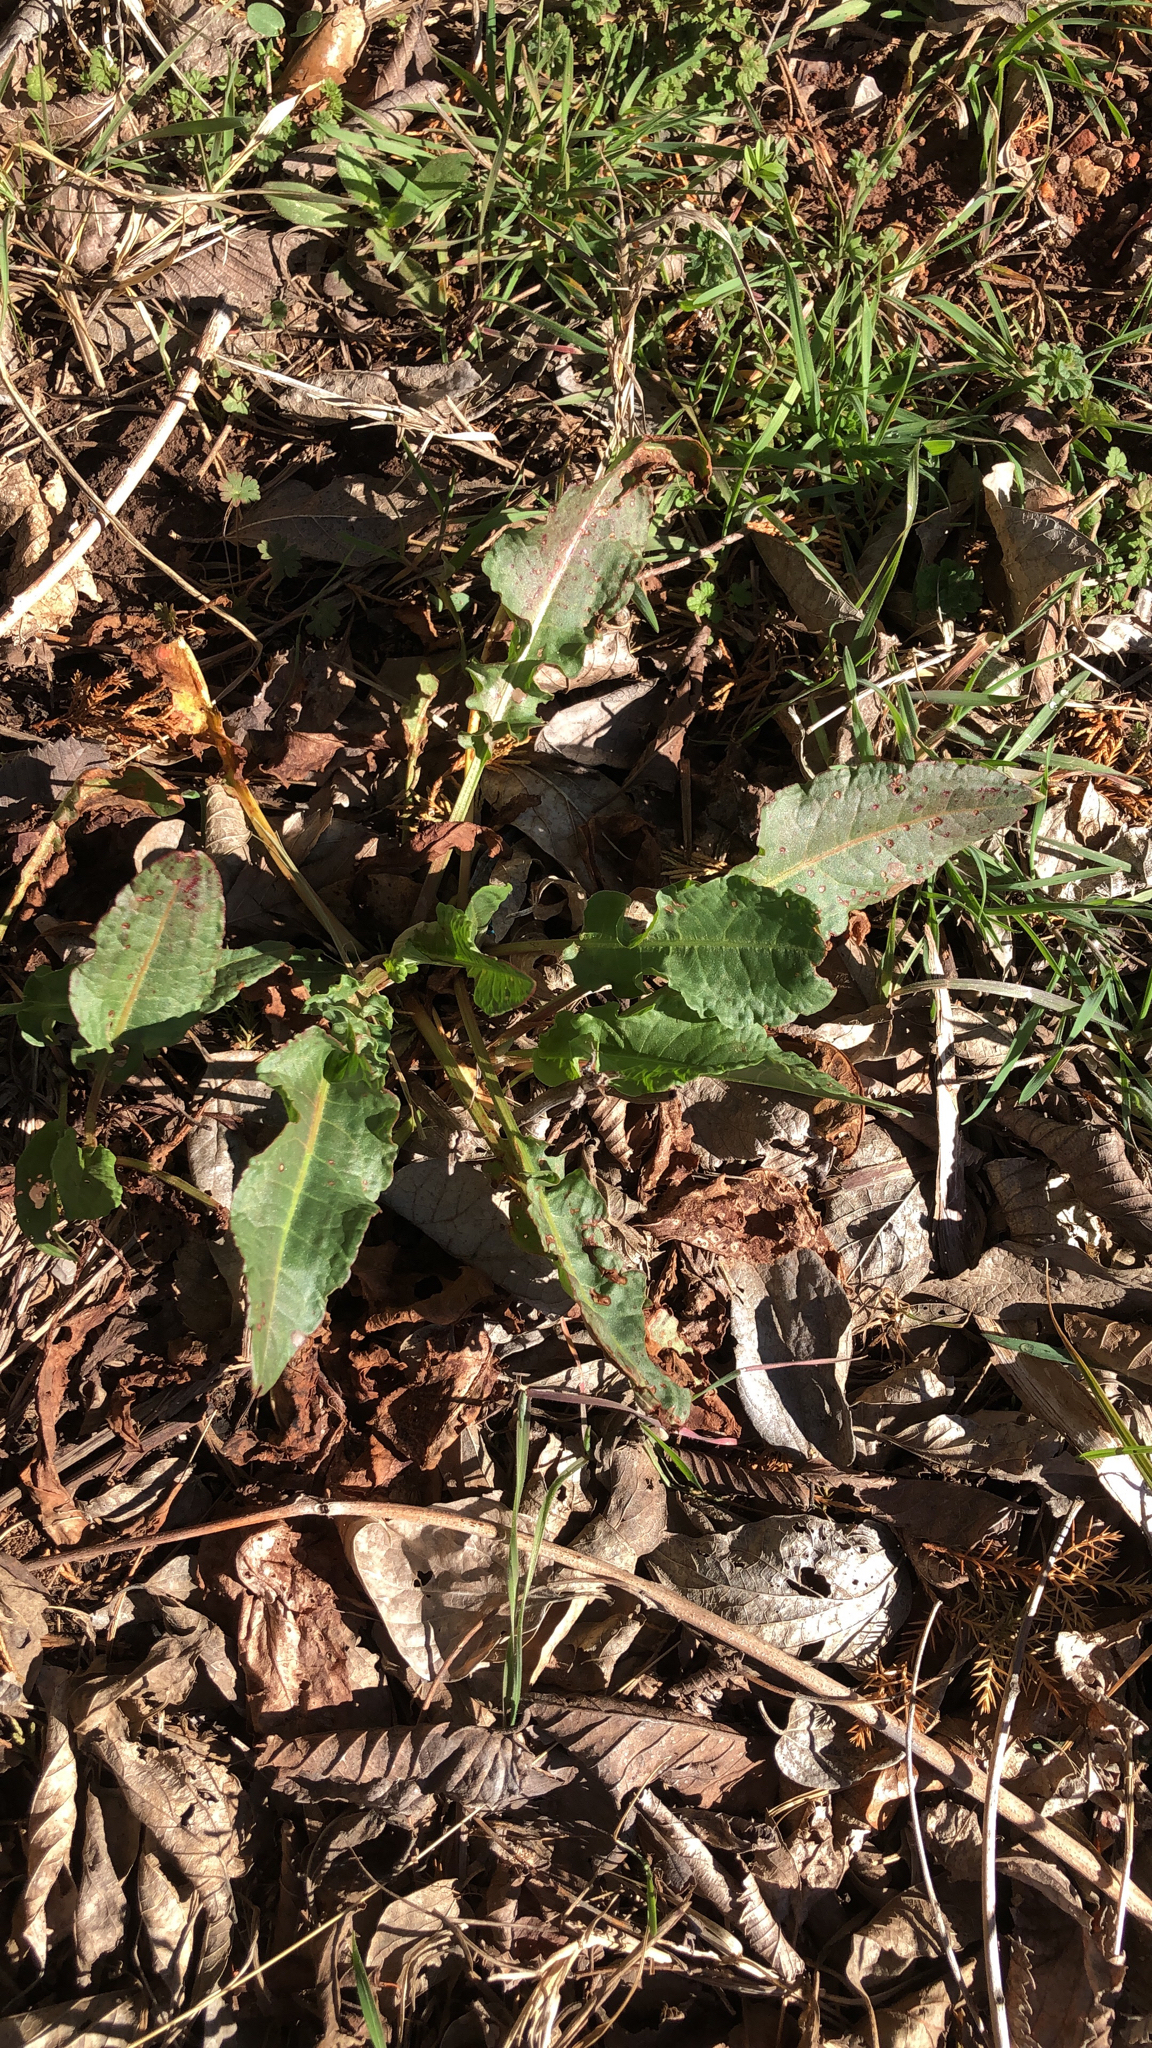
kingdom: Plantae
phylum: Tracheophyta
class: Magnoliopsida
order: Caryophyllales
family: Polygonaceae
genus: Rumex
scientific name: Rumex crispus
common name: Curled dock
